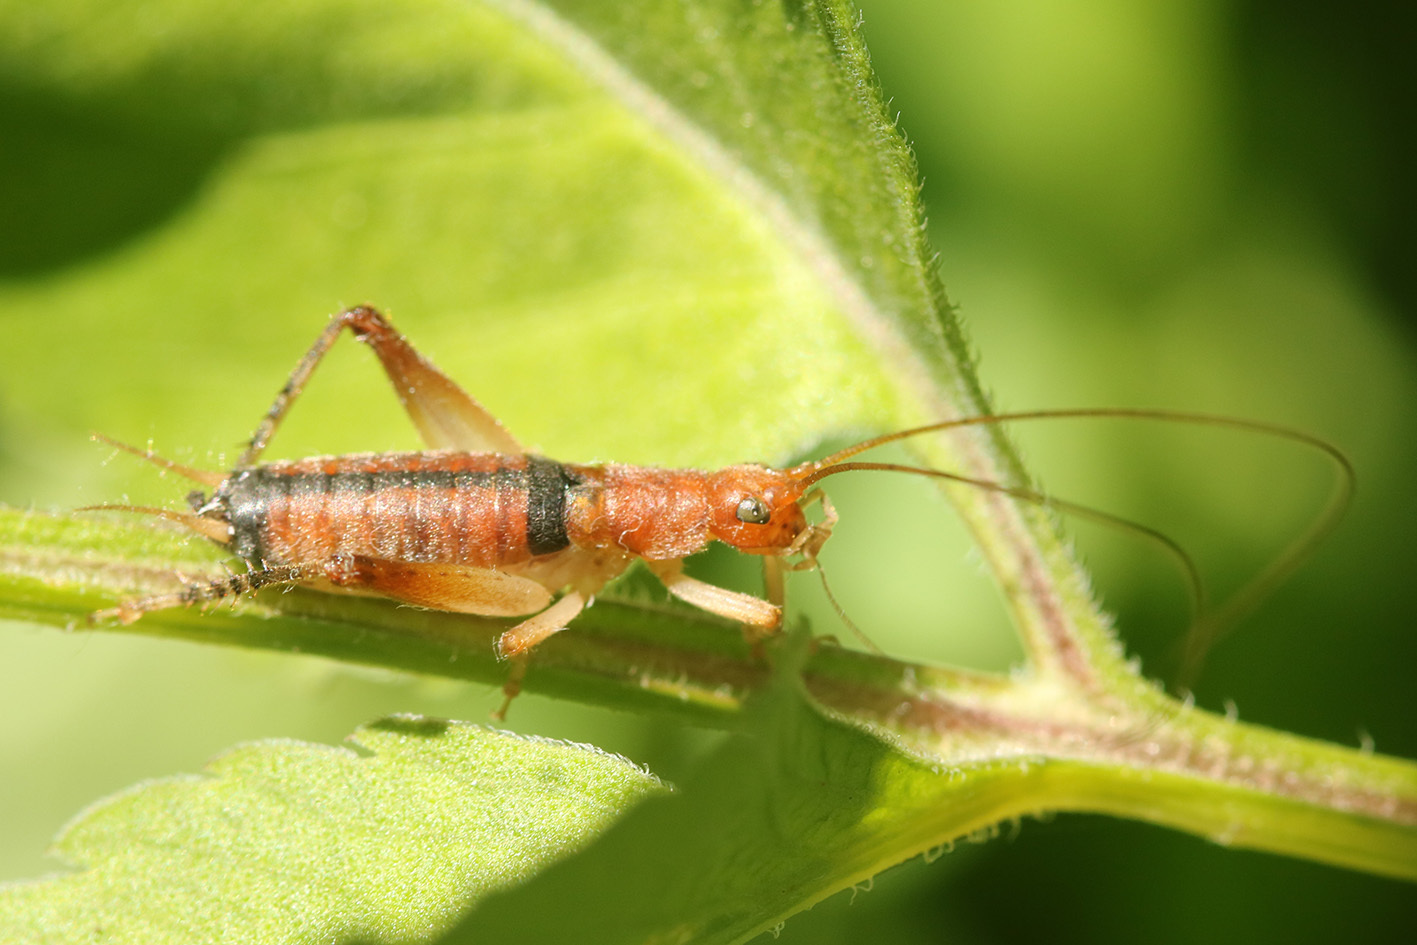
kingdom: Animalia
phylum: Arthropoda
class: Insecta
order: Orthoptera
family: Gryllidae
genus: Neometrypus
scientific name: Neometrypus aculeatus
